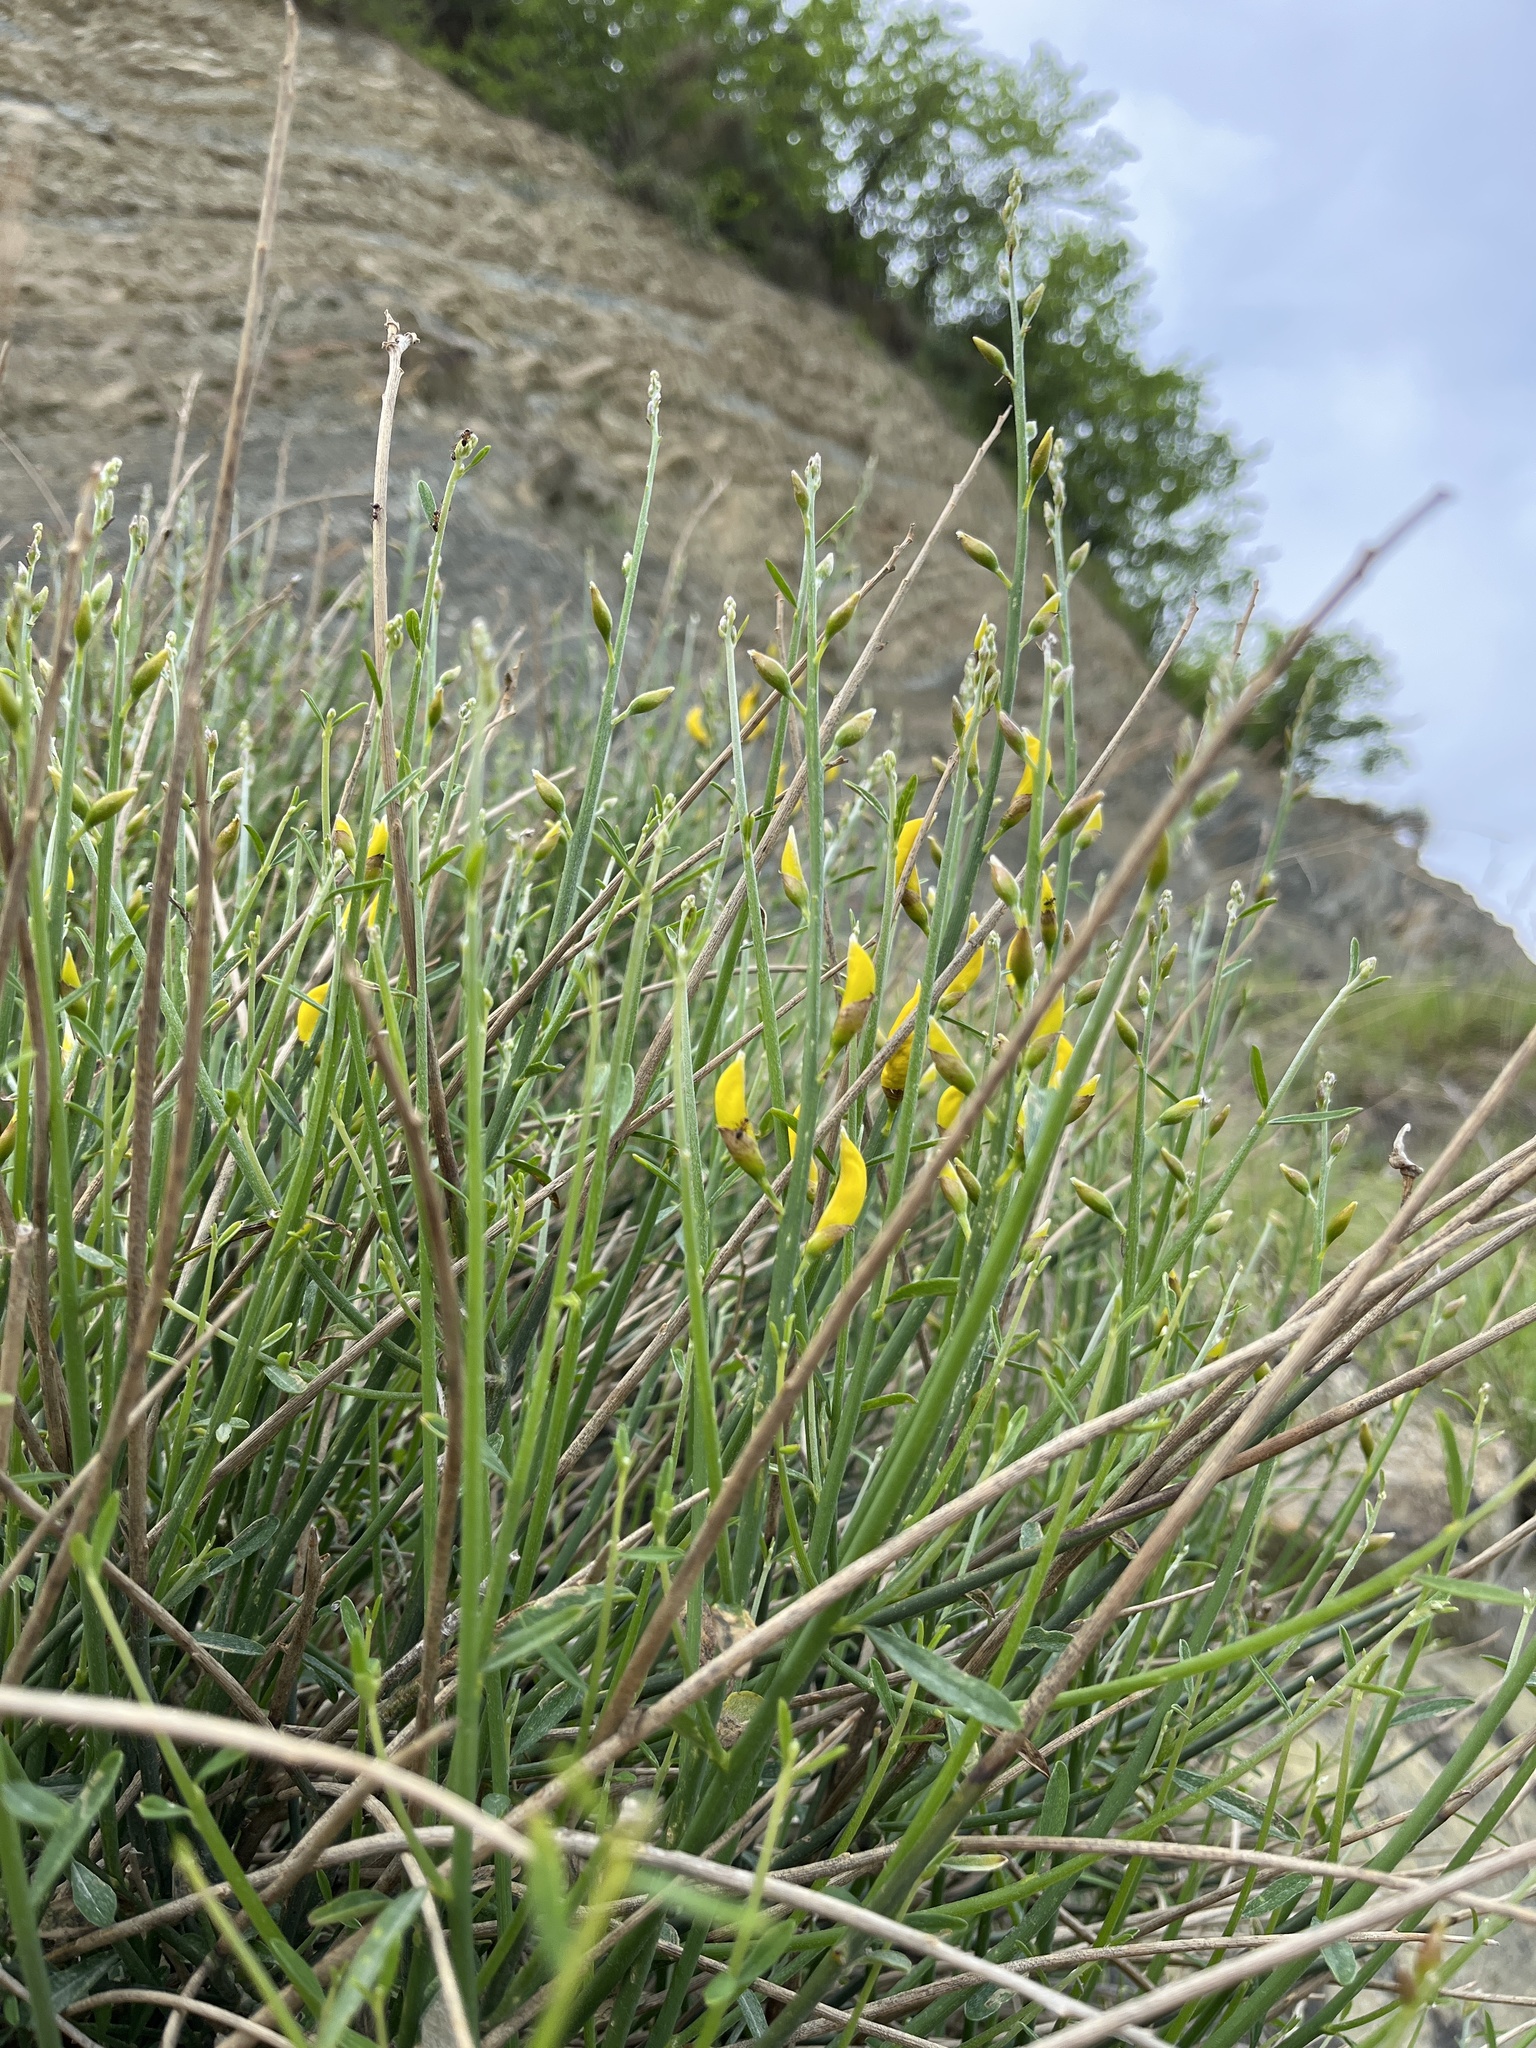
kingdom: Plantae
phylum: Tracheophyta
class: Magnoliopsida
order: Fabales
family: Fabaceae
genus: Spartium
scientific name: Spartium junceum
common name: Spanish broom
